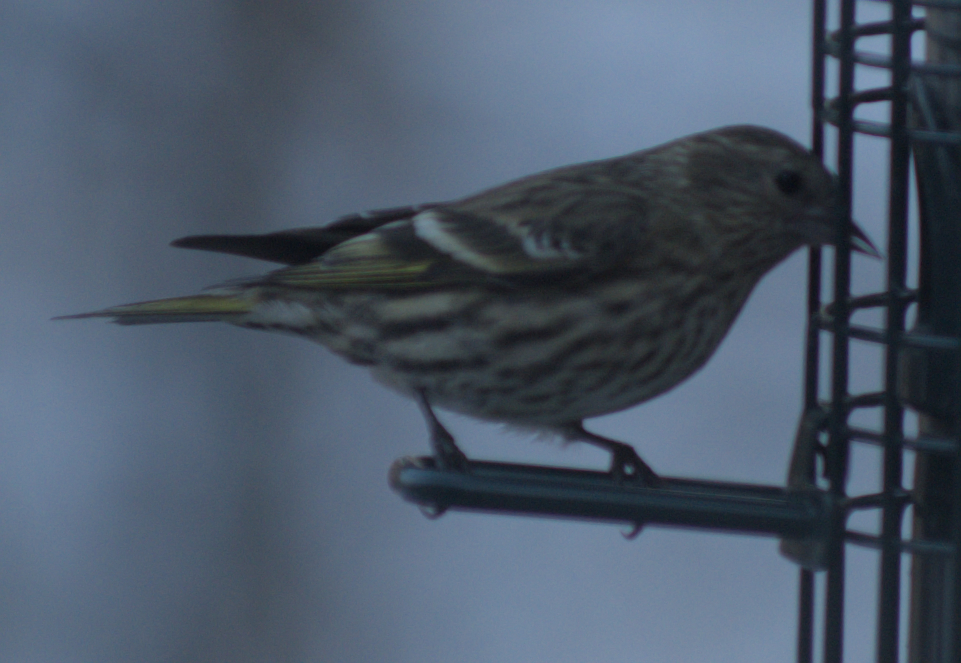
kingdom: Animalia
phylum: Chordata
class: Aves
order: Passeriformes
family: Fringillidae
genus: Spinus
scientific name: Spinus pinus
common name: Pine siskin
